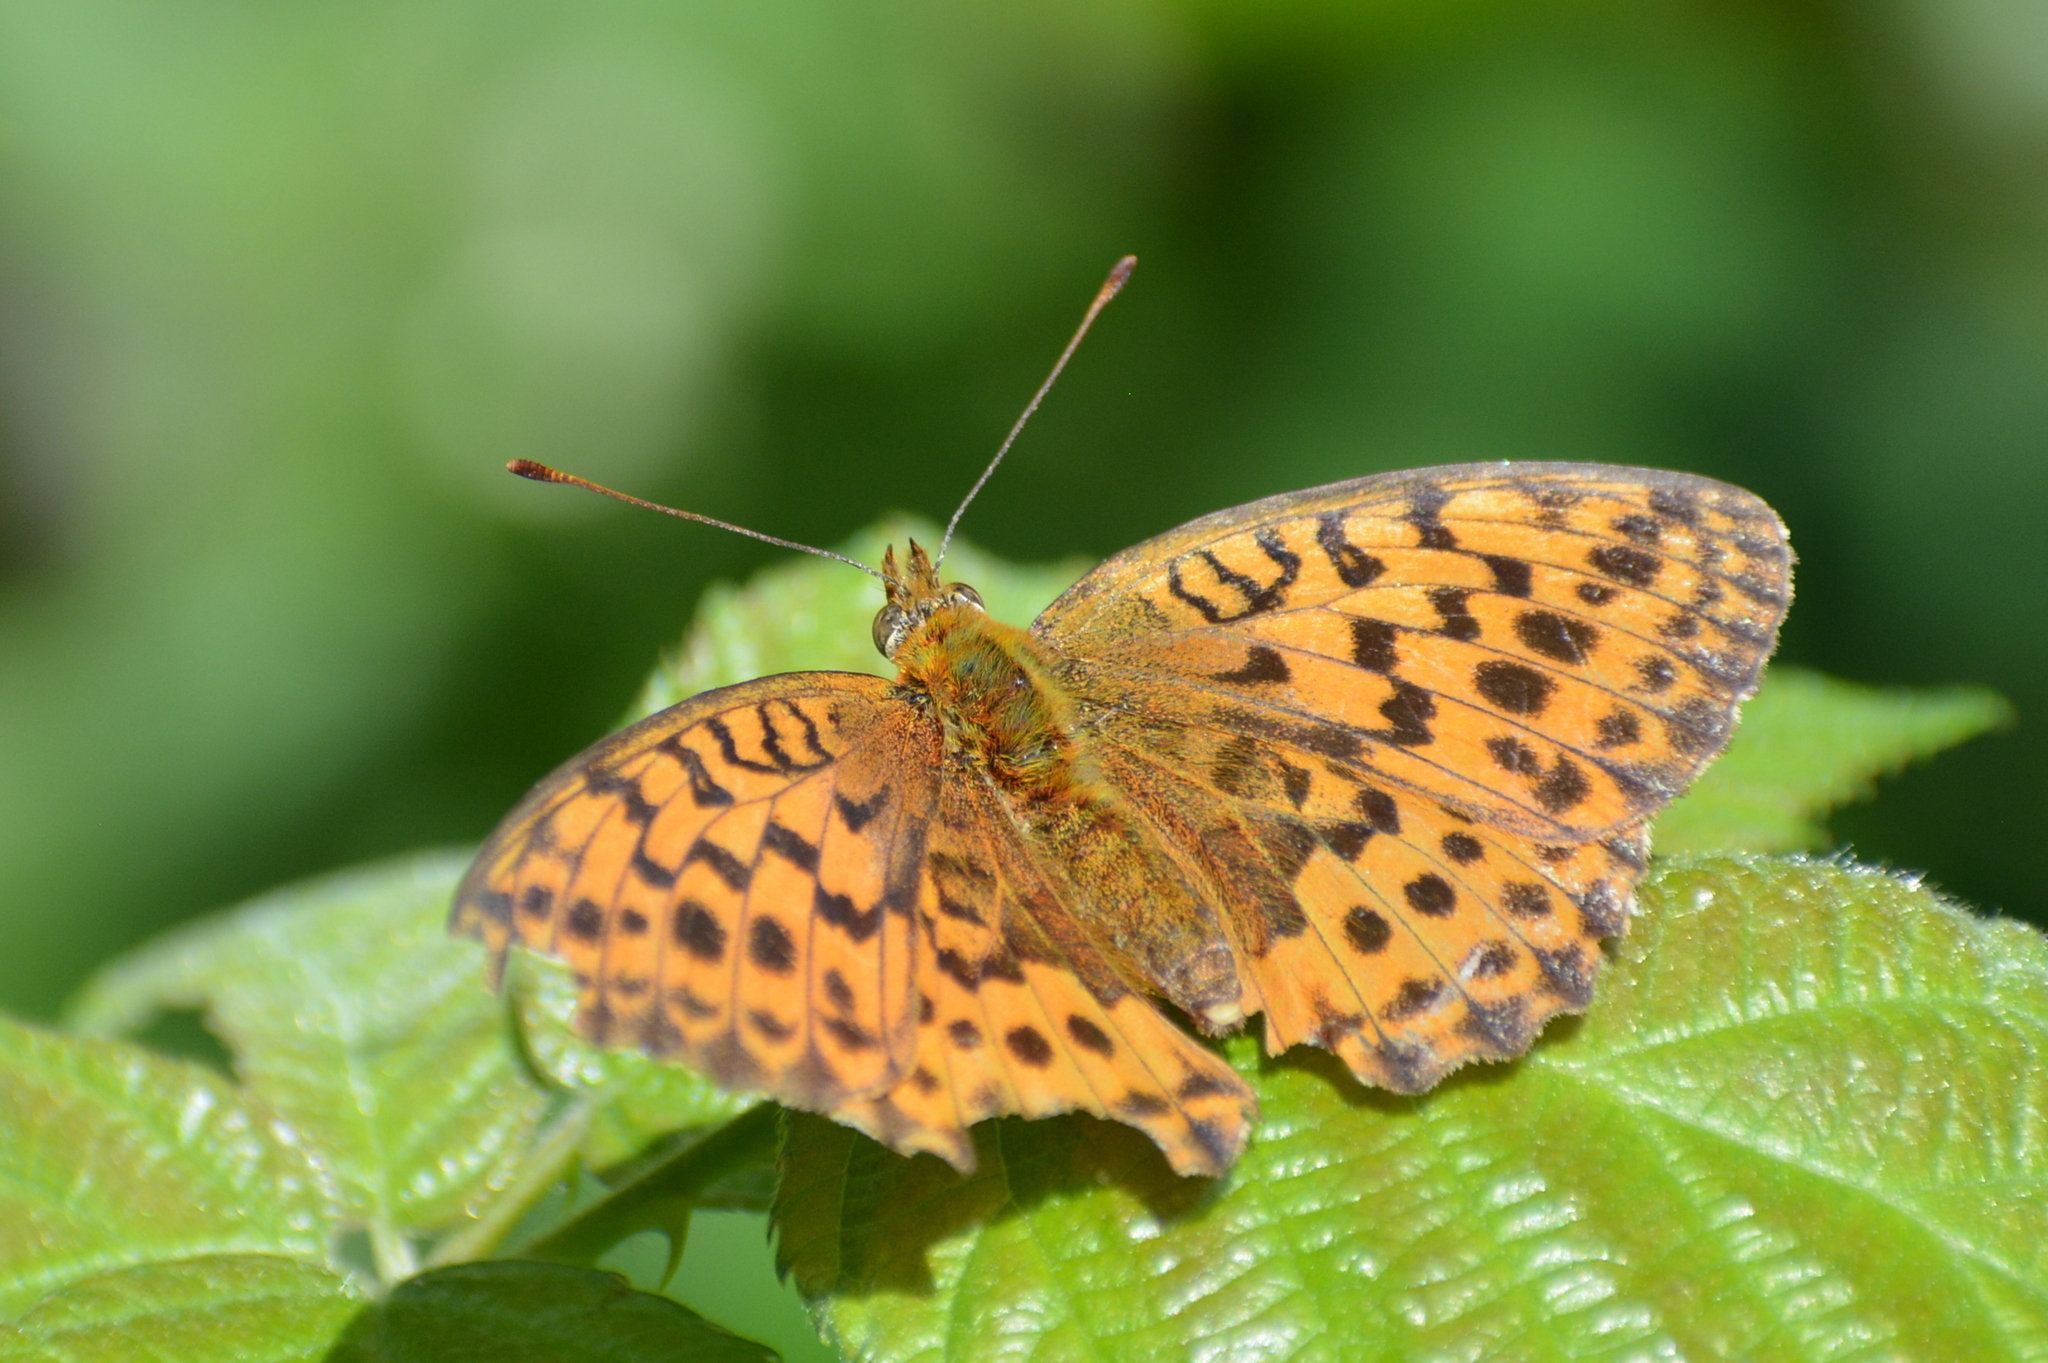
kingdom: Animalia
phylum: Arthropoda
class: Insecta
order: Lepidoptera
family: Nymphalidae
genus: Brenthis
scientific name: Brenthis daphne
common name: Marbled fritillary
